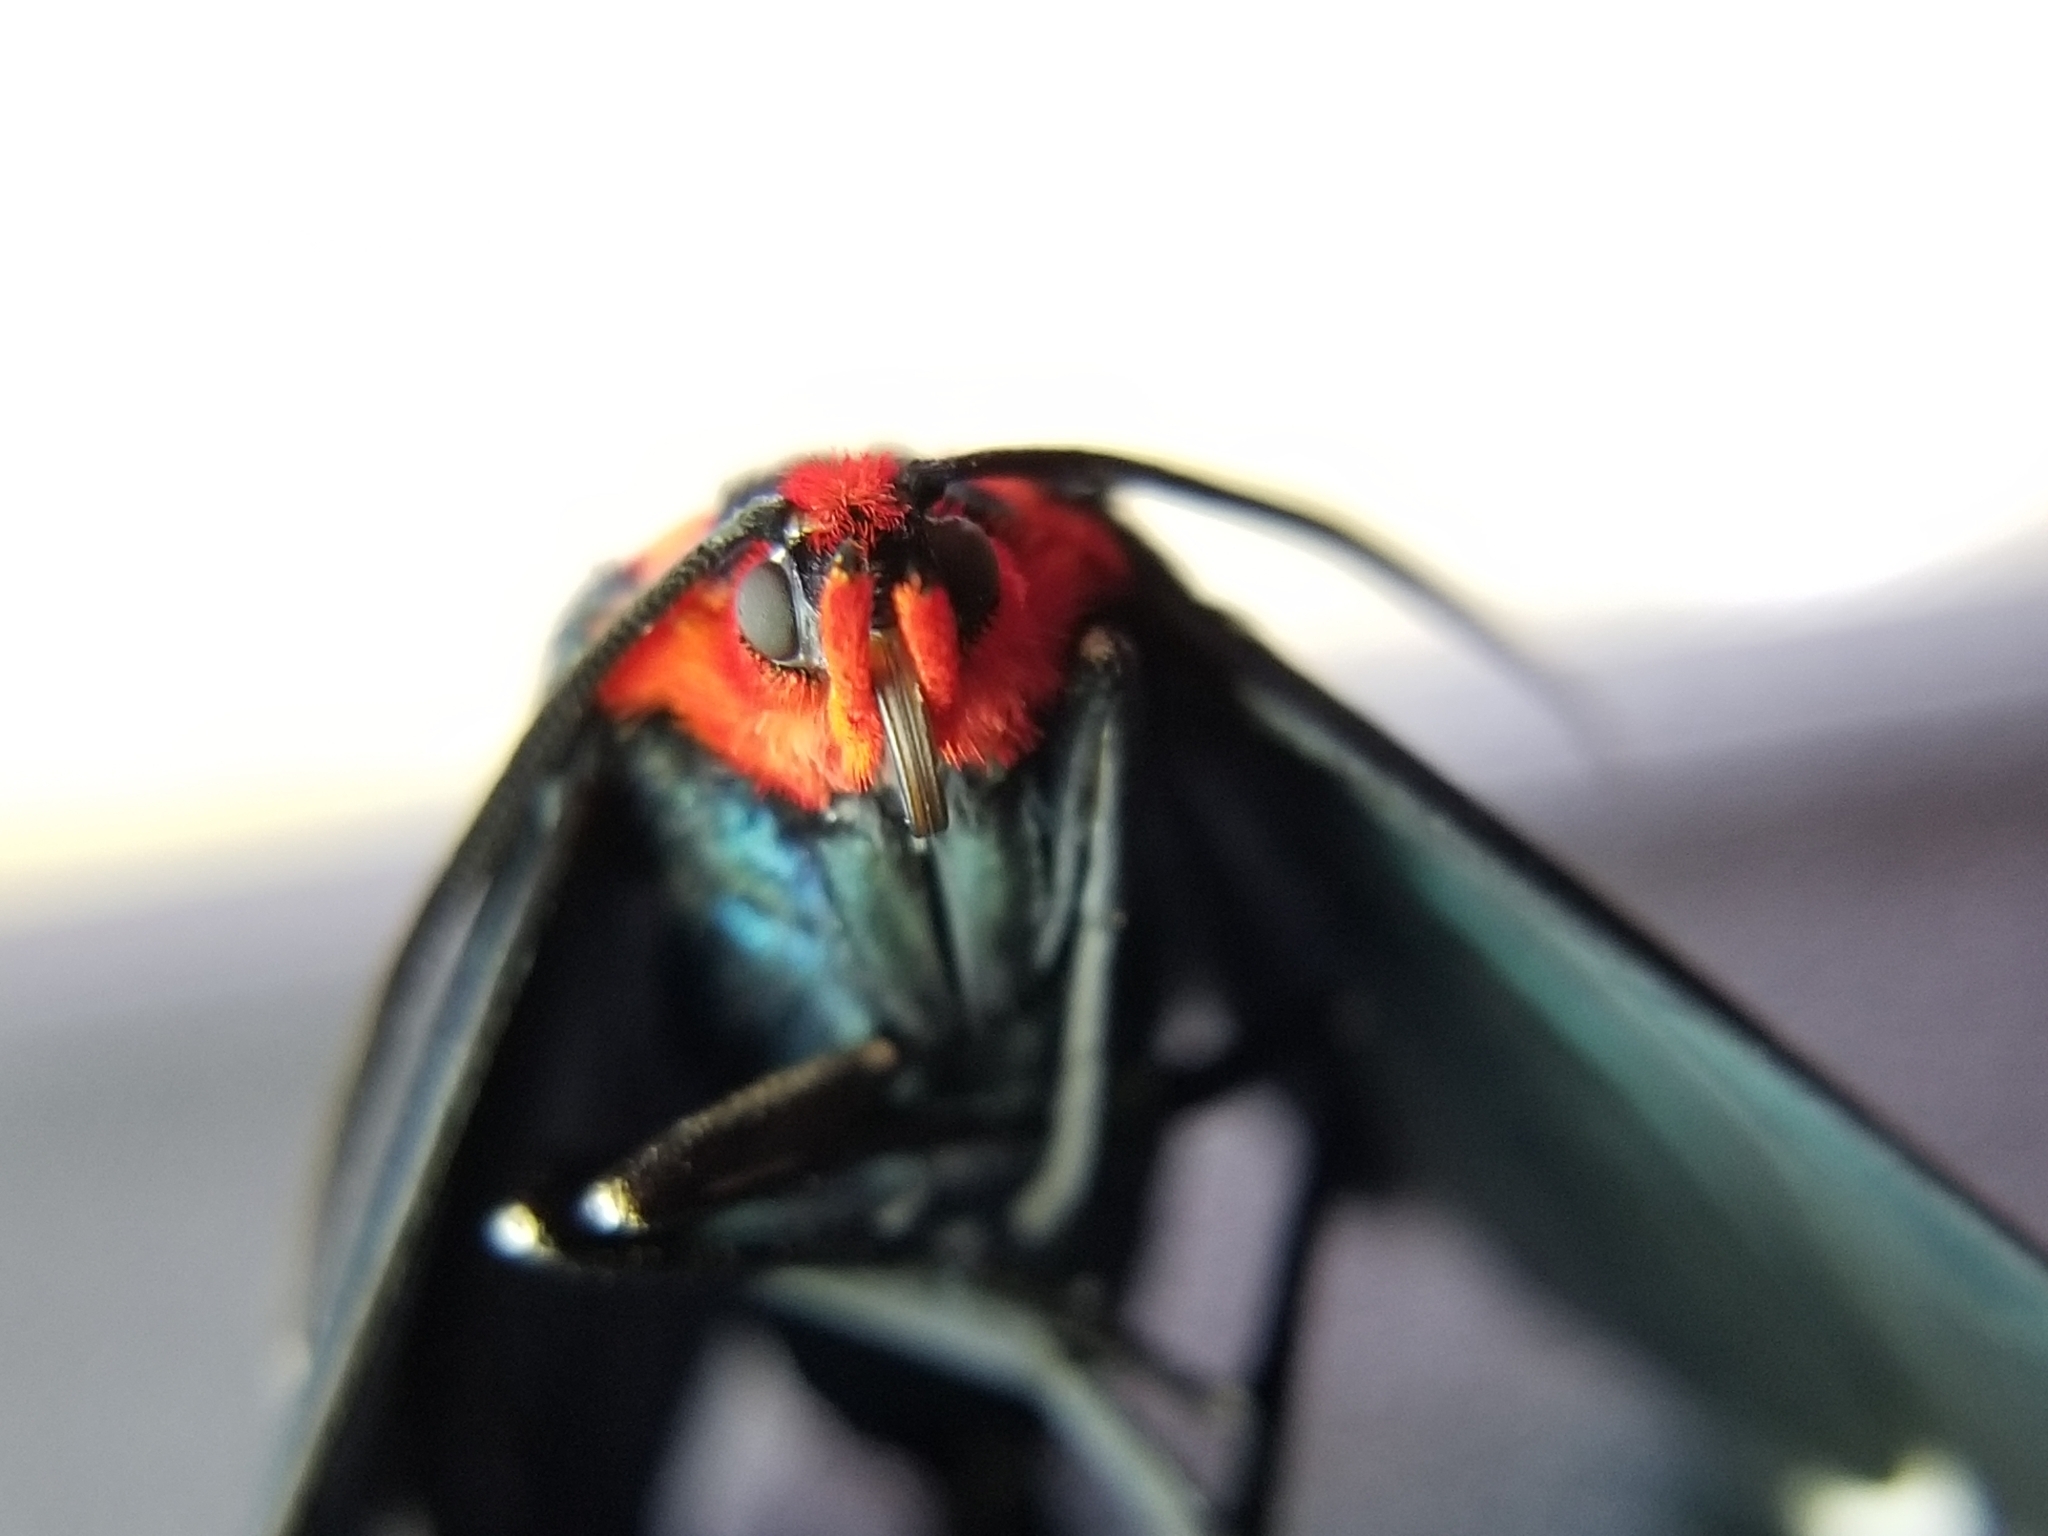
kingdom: Animalia
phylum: Arthropoda
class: Insecta
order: Lepidoptera
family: Erebidae
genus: Ctenucha
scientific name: Ctenucha rubroscapus
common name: Red-shouldered ctenucha
